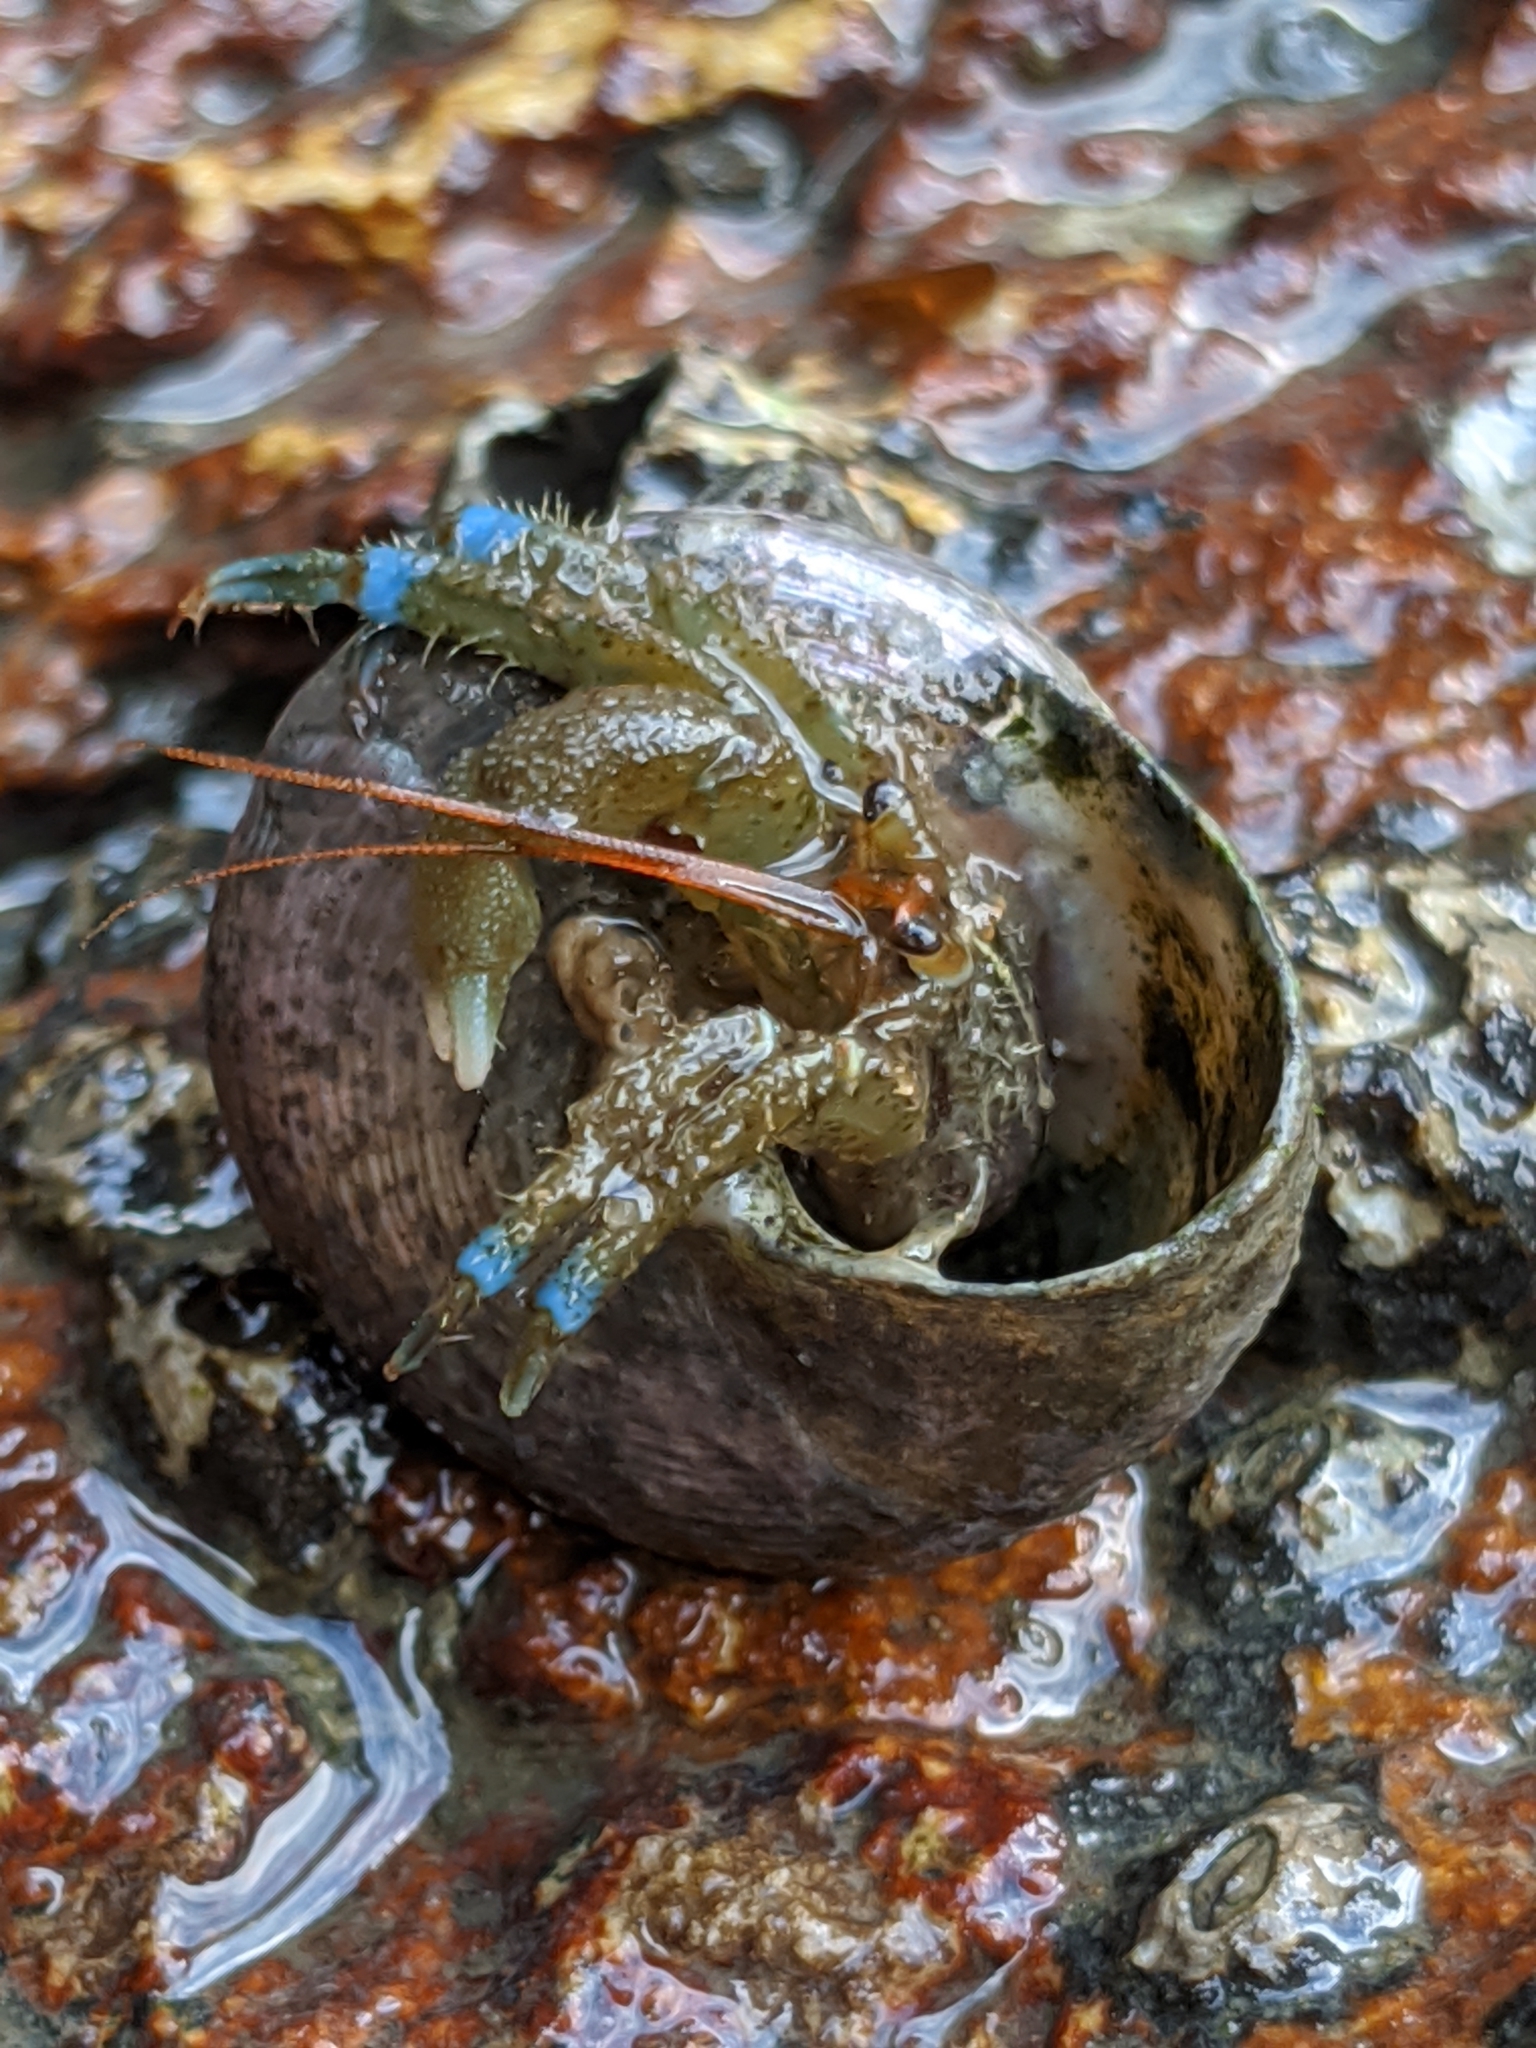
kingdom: Animalia
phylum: Arthropoda
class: Malacostraca
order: Decapoda
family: Paguridae
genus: Pagurus
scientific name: Pagurus samuelis
